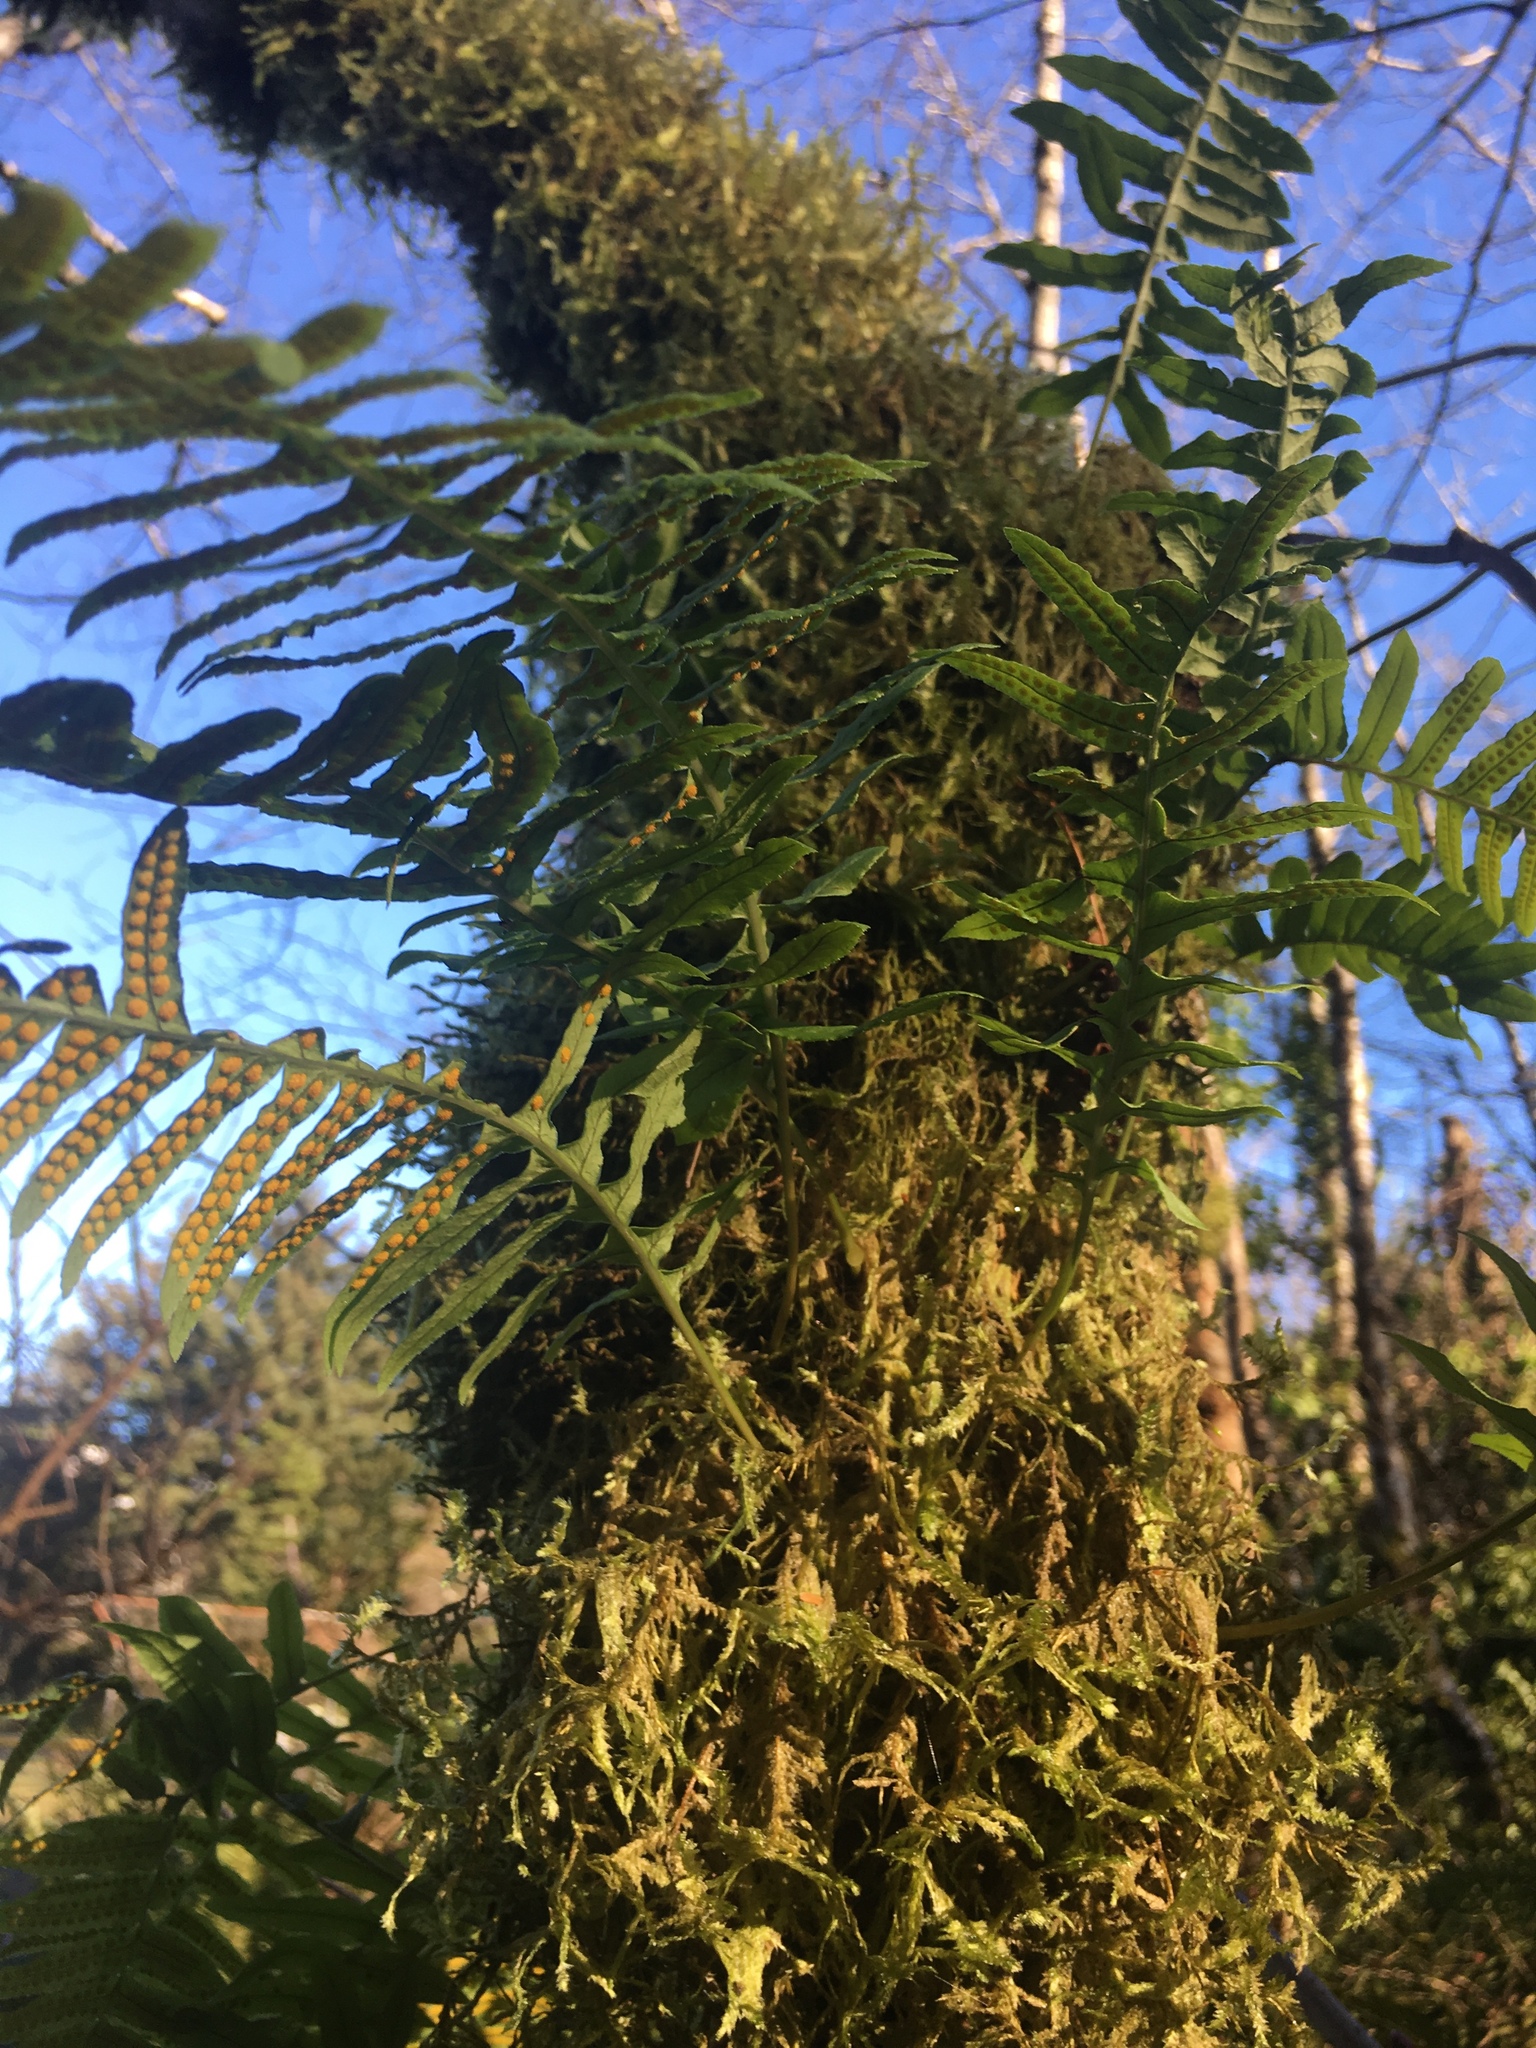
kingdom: Plantae
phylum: Tracheophyta
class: Polypodiopsida
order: Polypodiales
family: Polypodiaceae
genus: Polypodium
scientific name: Polypodium glycyrrhiza
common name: Licorice fern
